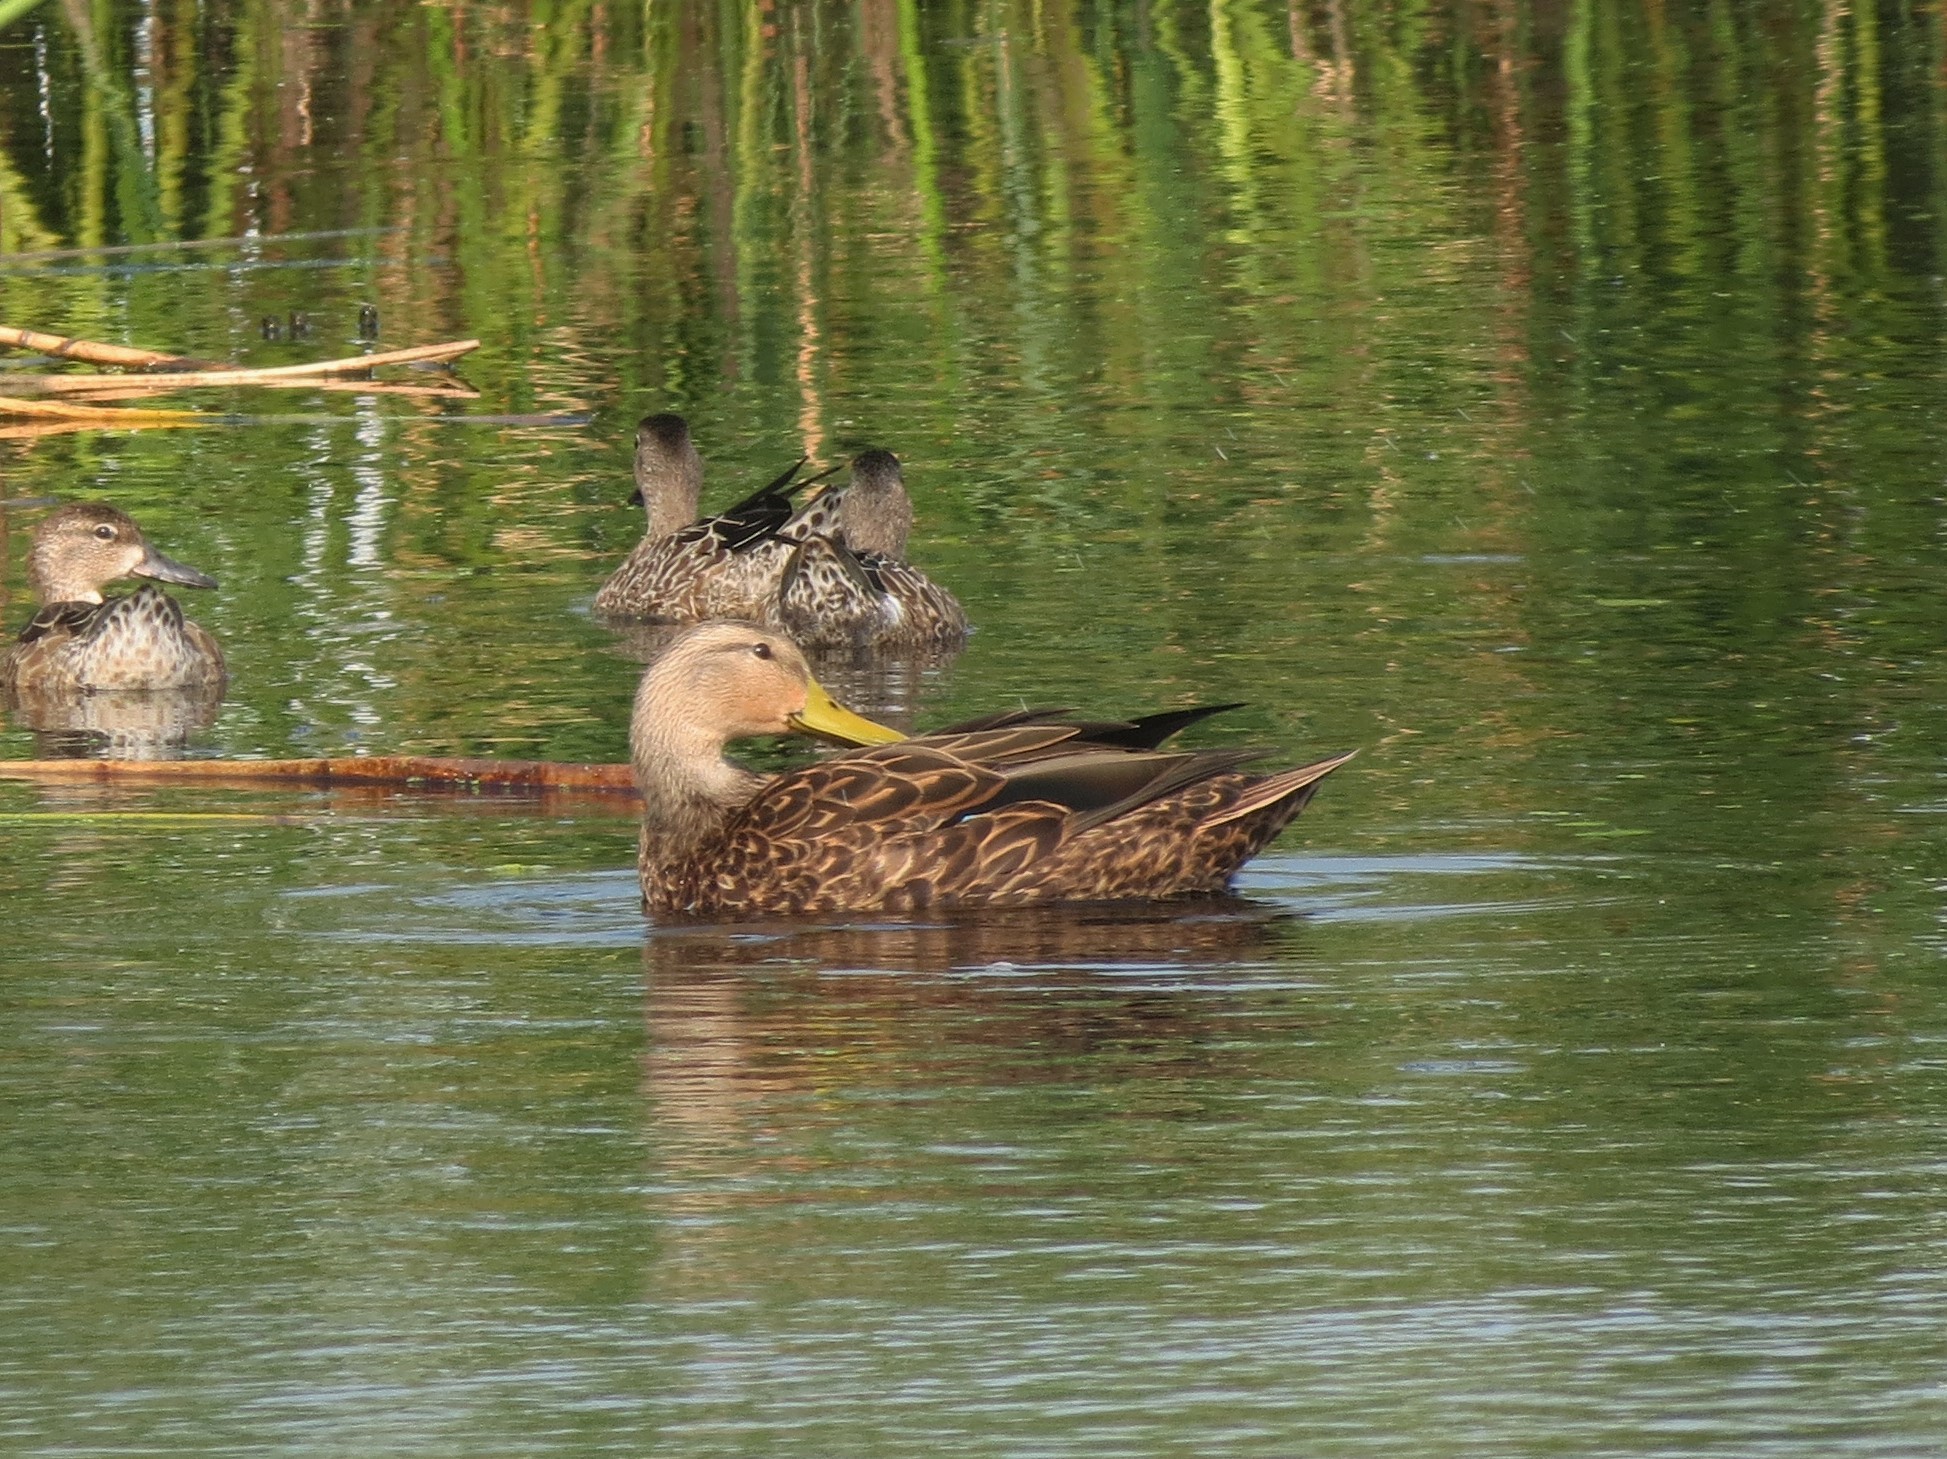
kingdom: Animalia
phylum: Chordata
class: Aves
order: Anseriformes
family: Anatidae
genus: Anas
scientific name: Anas fulvigula
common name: Mottled duck
